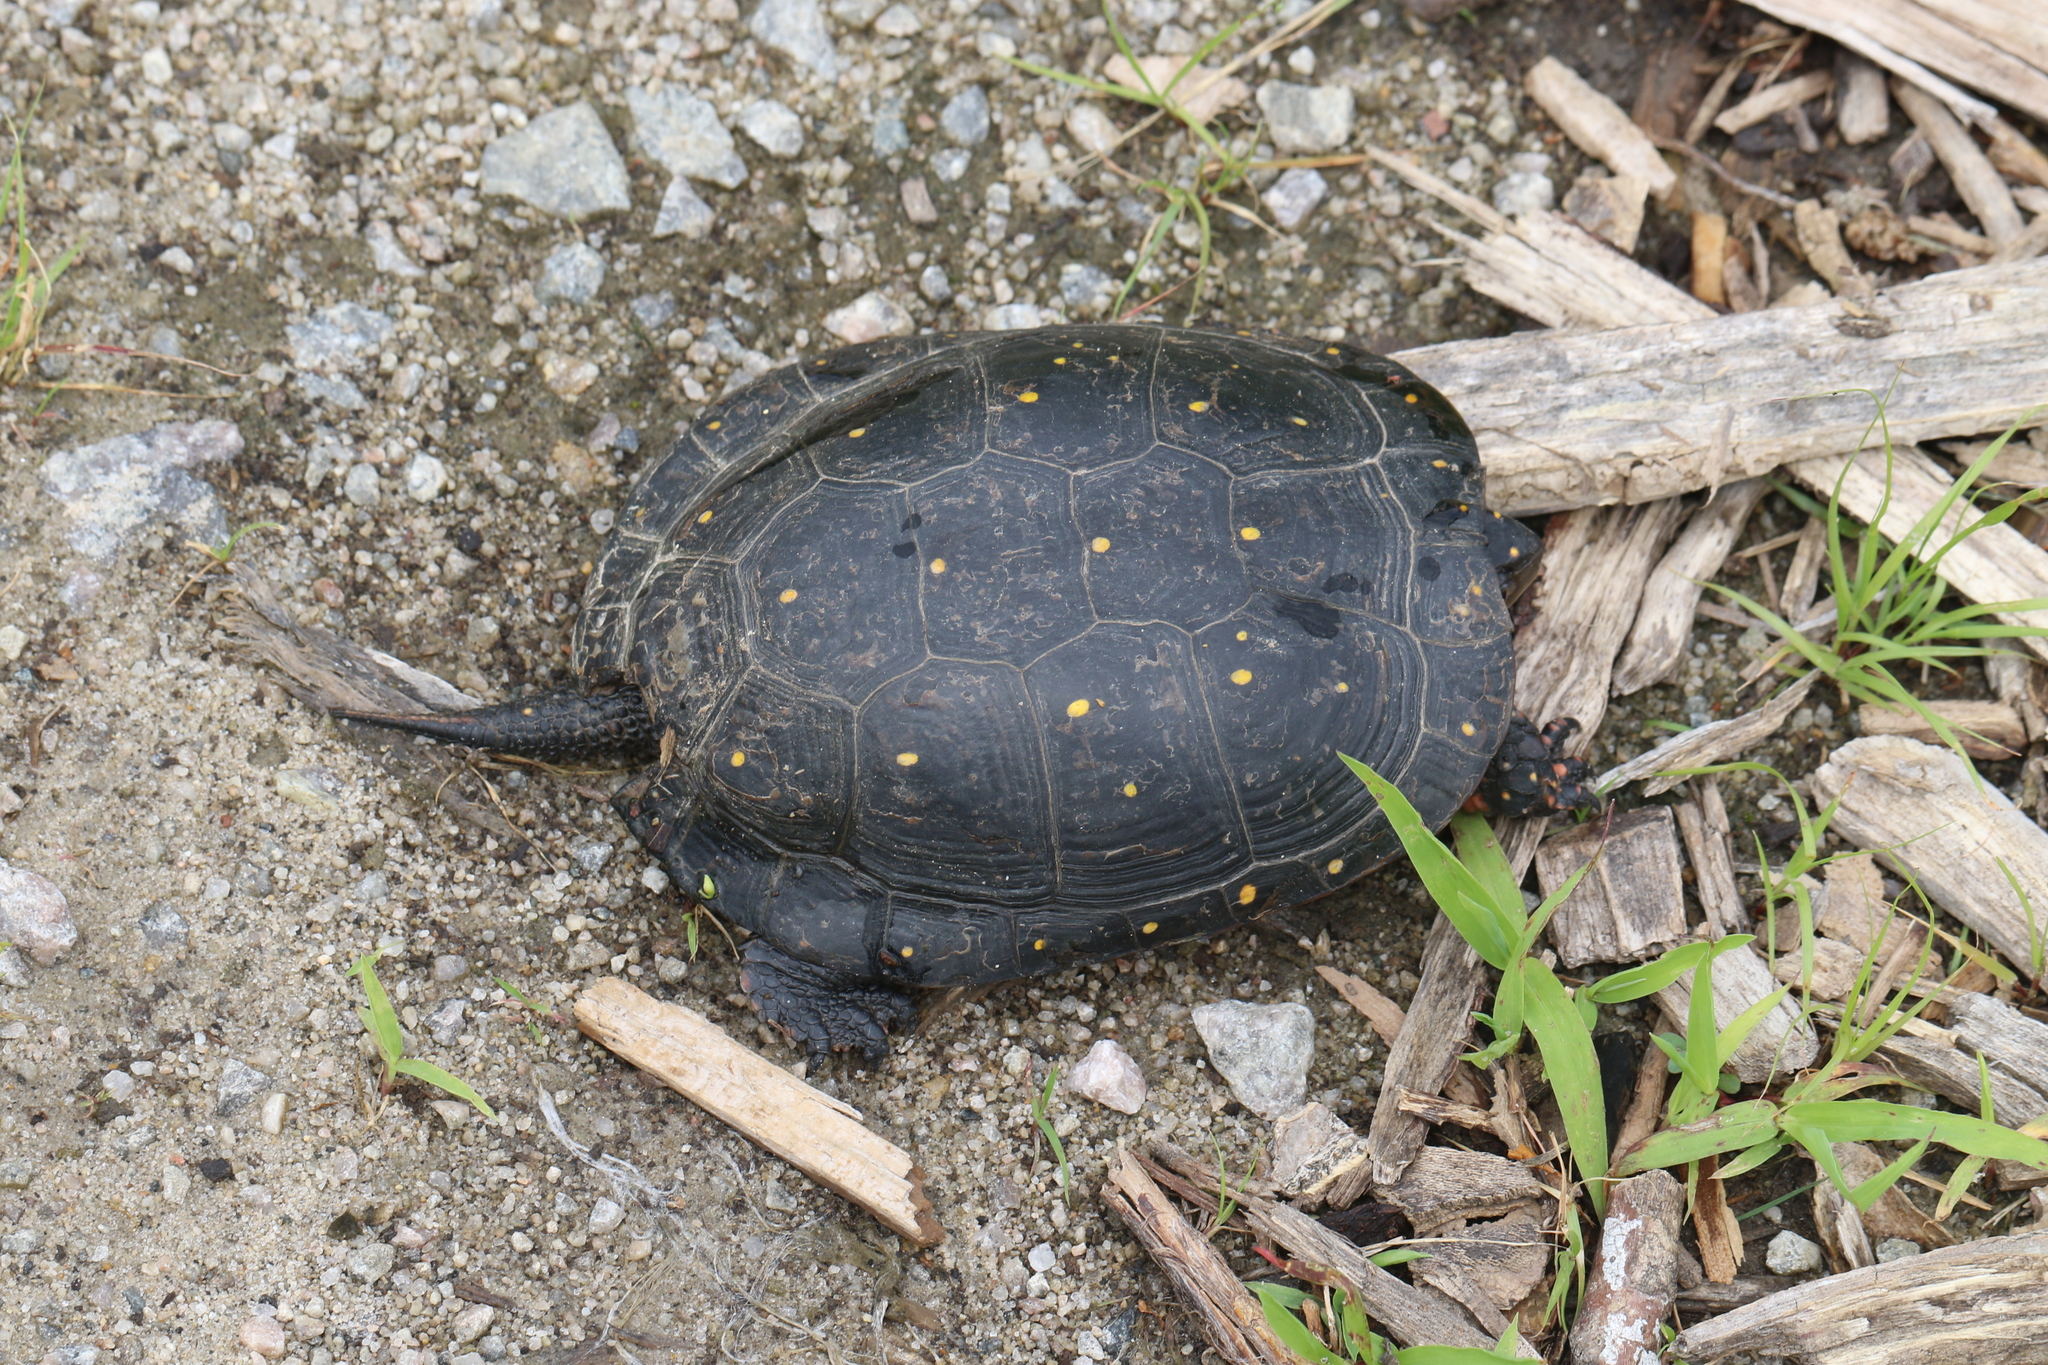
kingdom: Animalia
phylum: Chordata
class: Testudines
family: Emydidae
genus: Clemmys
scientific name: Clemmys guttata
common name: Spotted turtle
